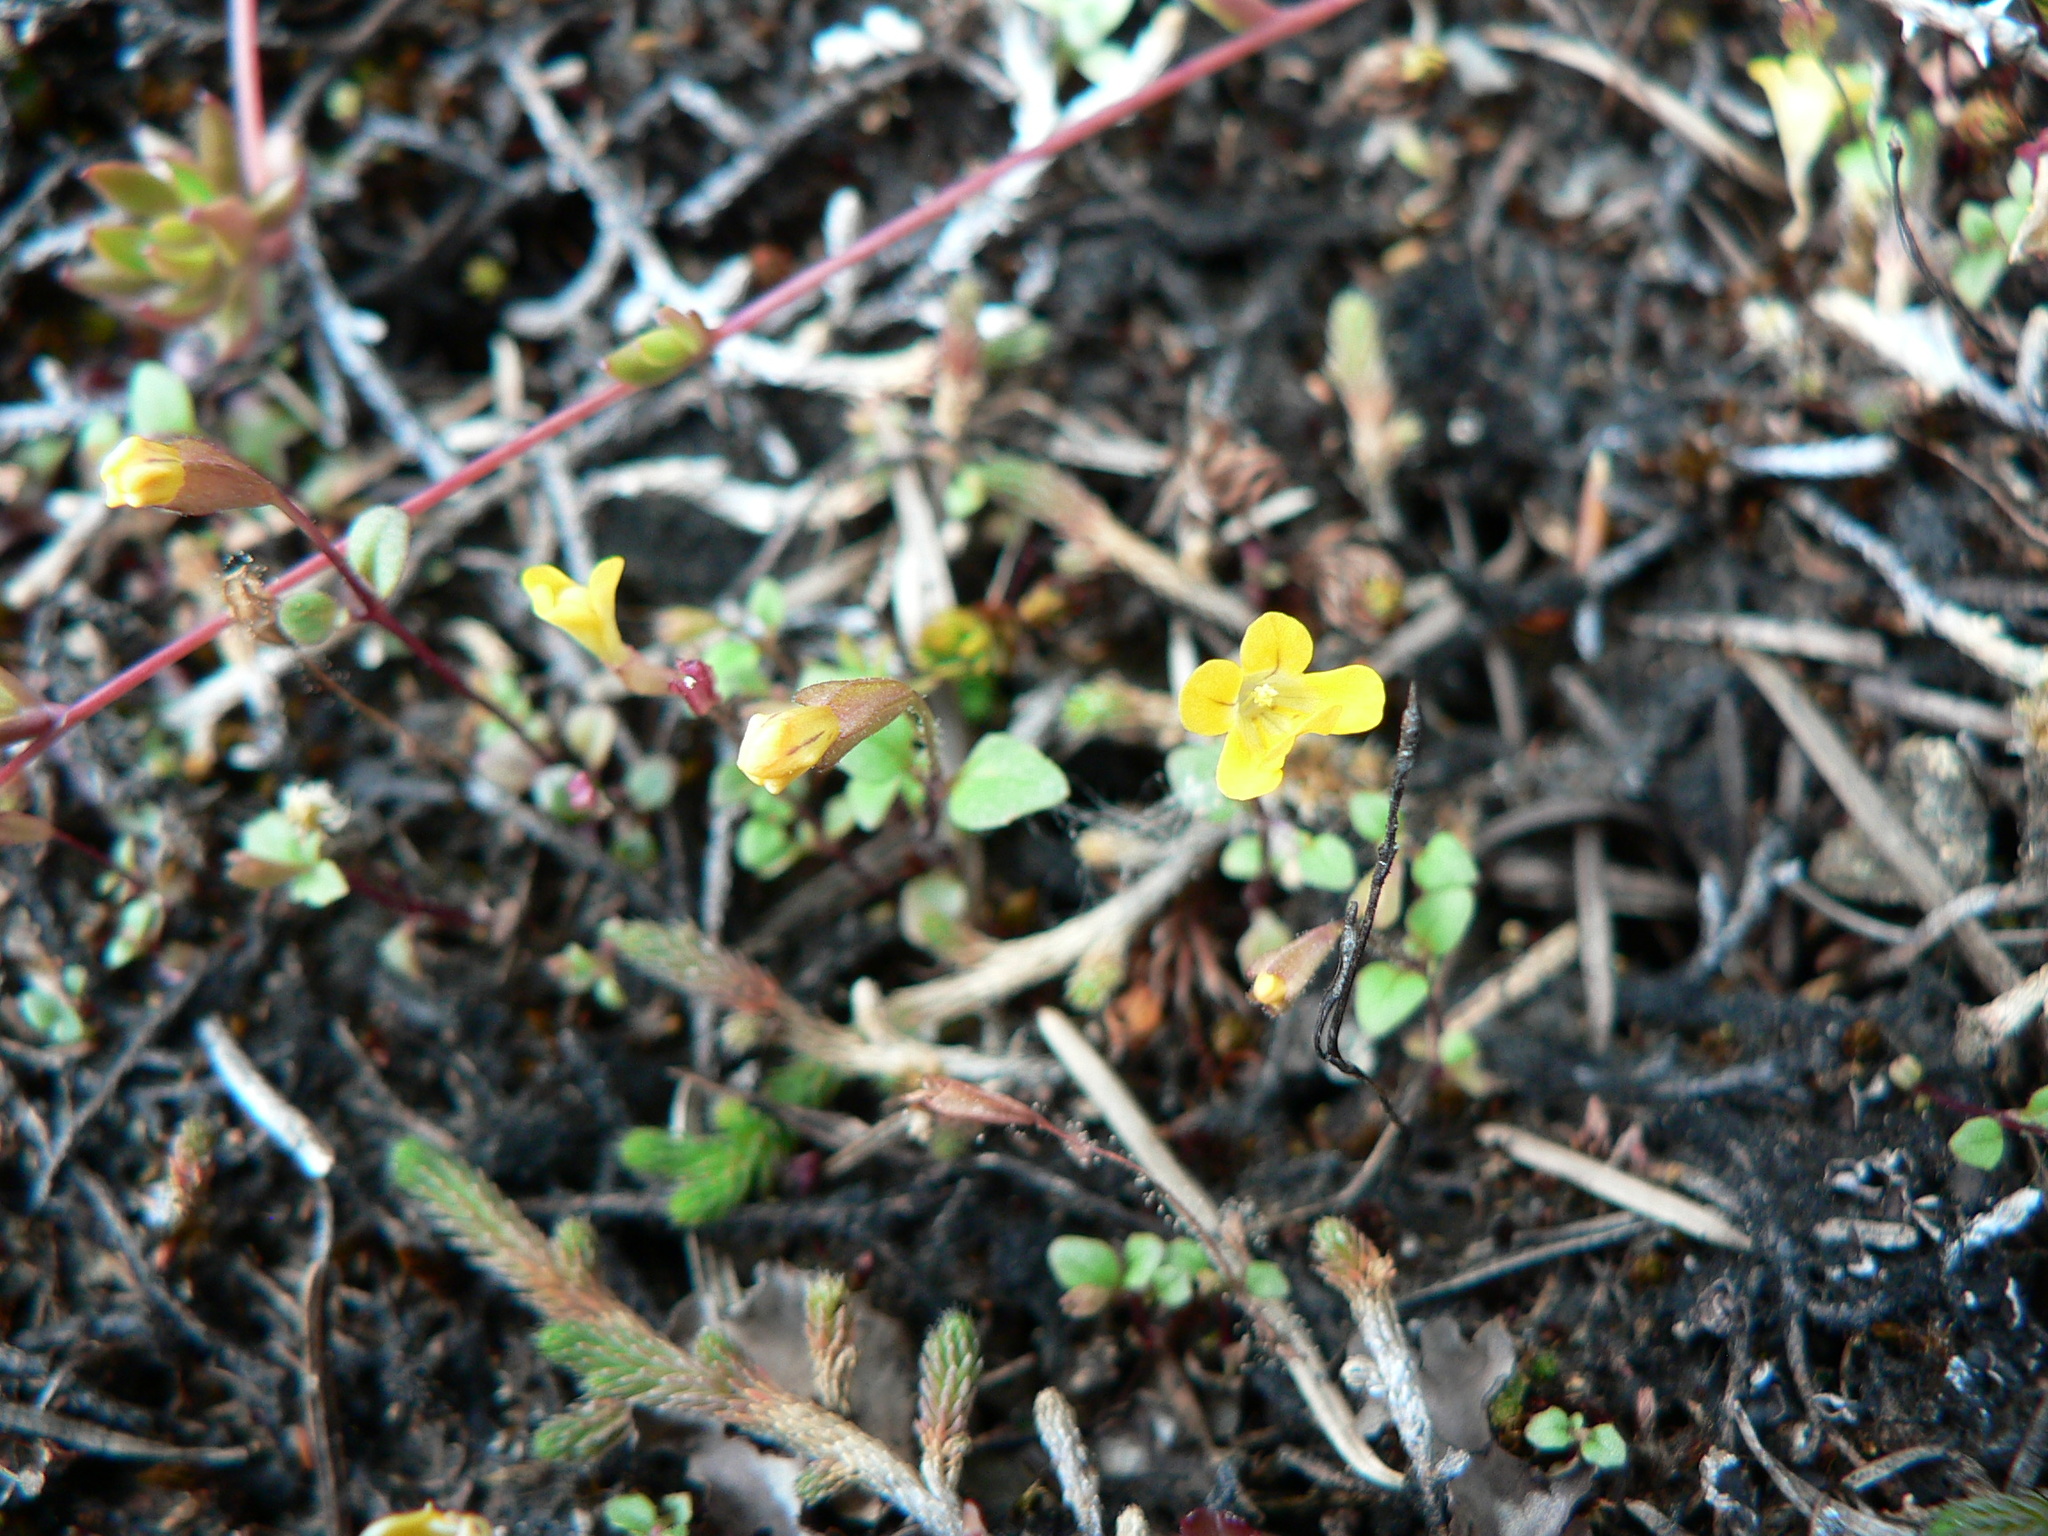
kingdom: Plantae
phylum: Tracheophyta
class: Magnoliopsida
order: Lamiales
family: Phrymaceae
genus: Erythranthe
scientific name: Erythranthe alsinoides
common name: Chickweed monkeyflower
